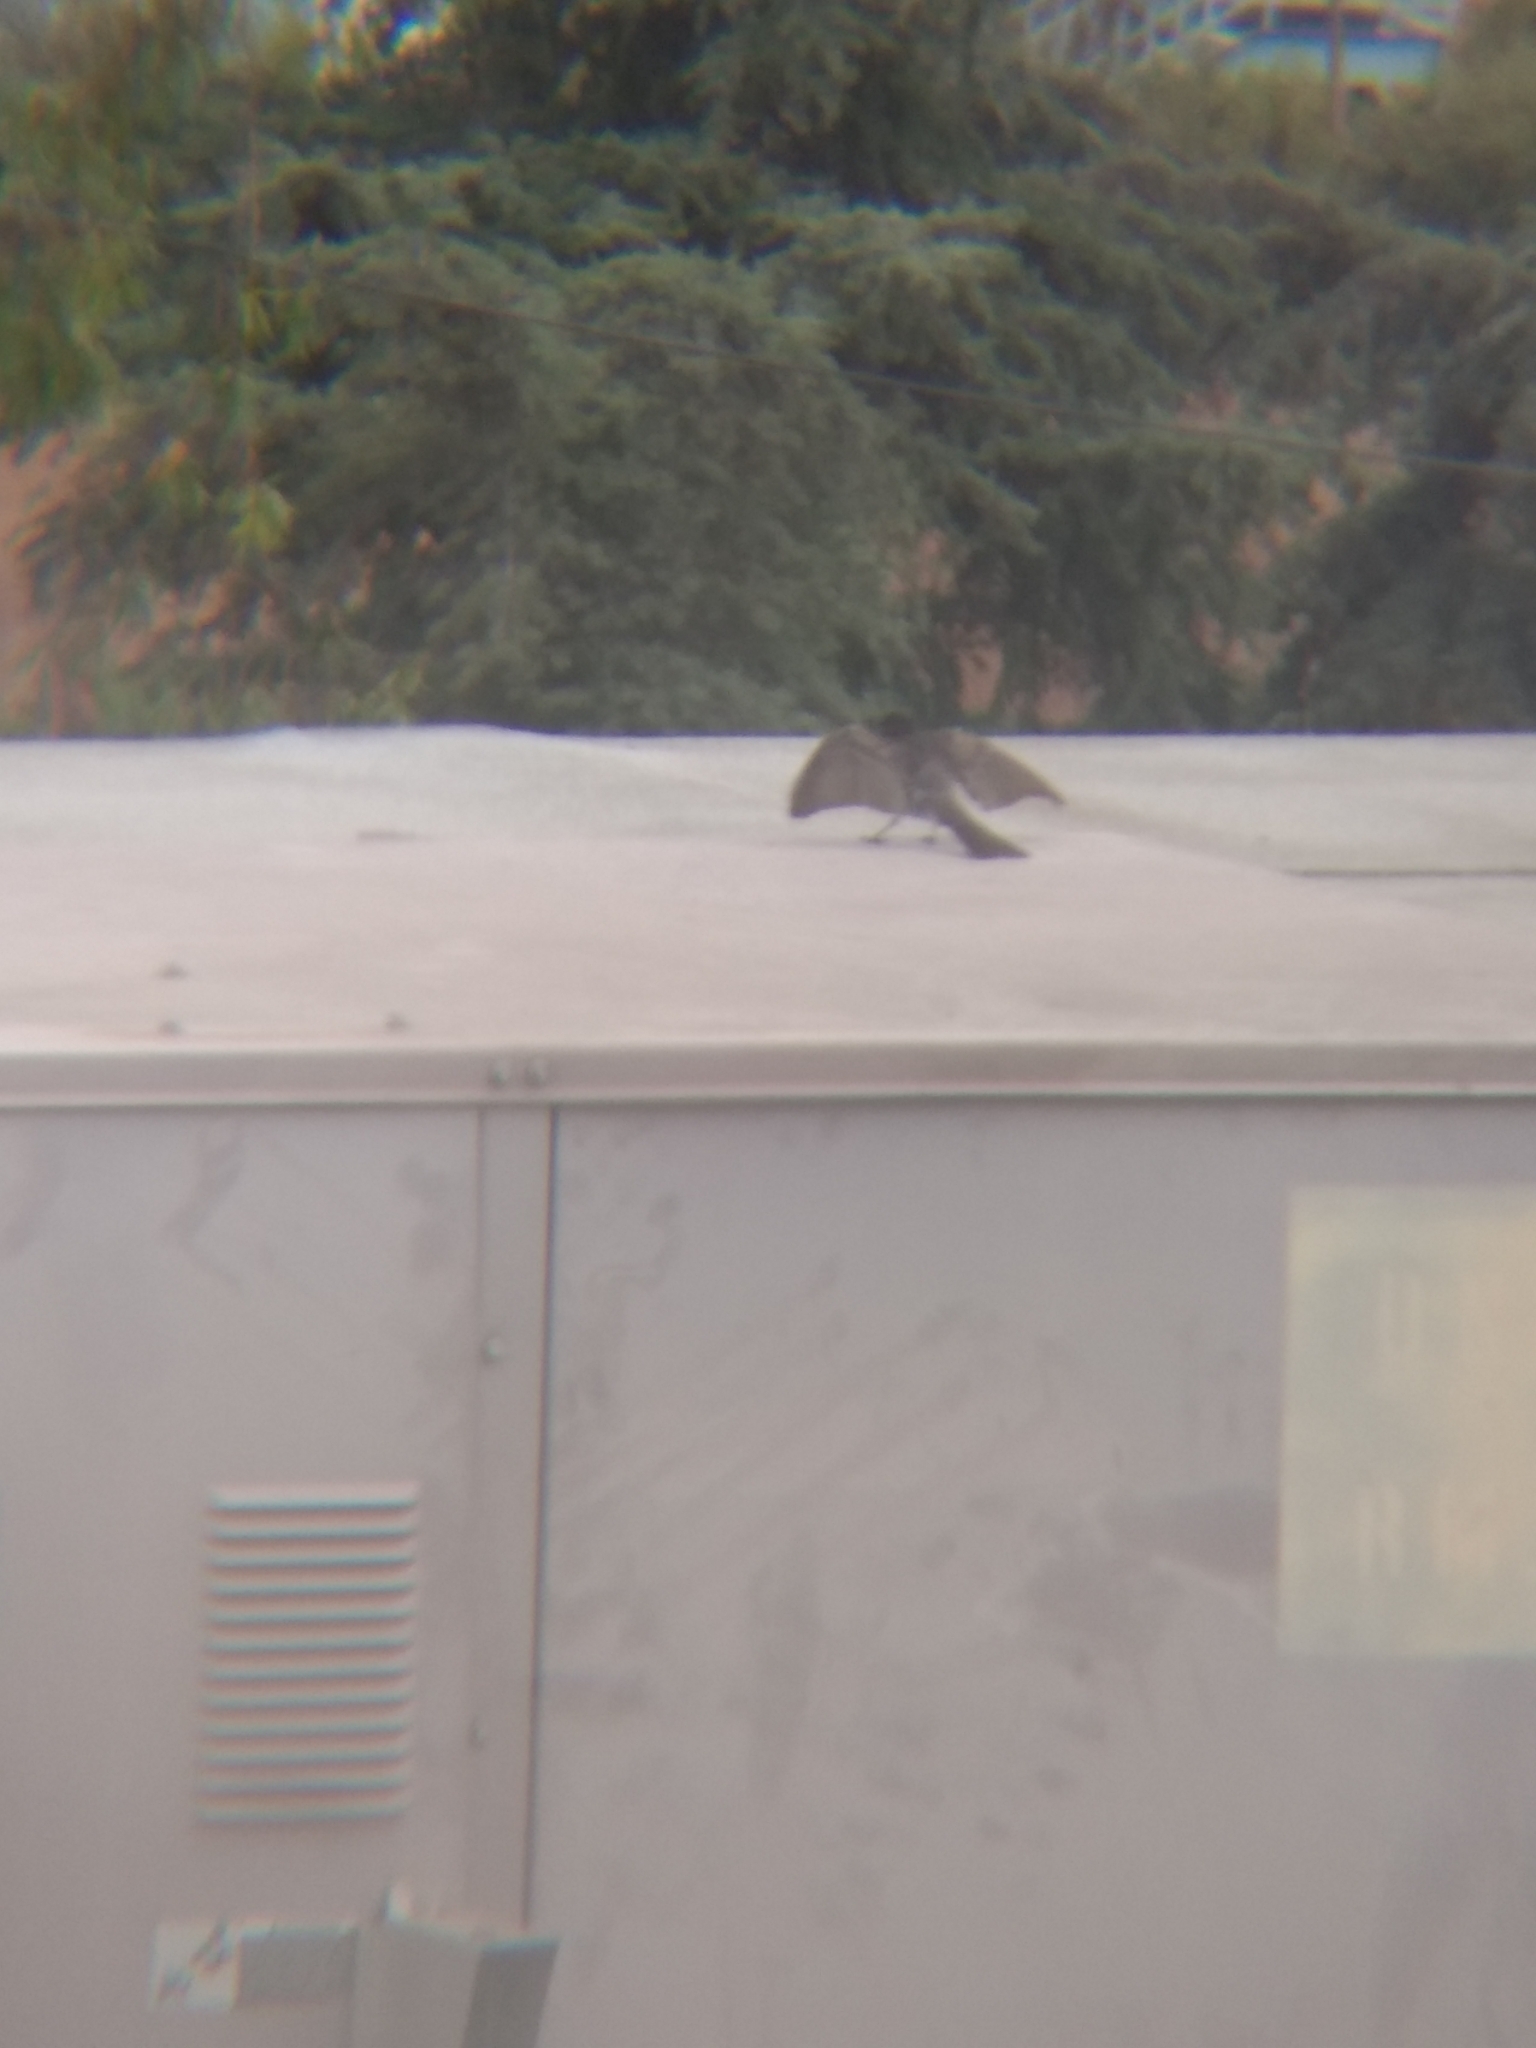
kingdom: Animalia
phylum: Chordata
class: Aves
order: Passeriformes
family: Tyrannidae
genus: Sayornis
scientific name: Sayornis nigricans
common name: Black phoebe
